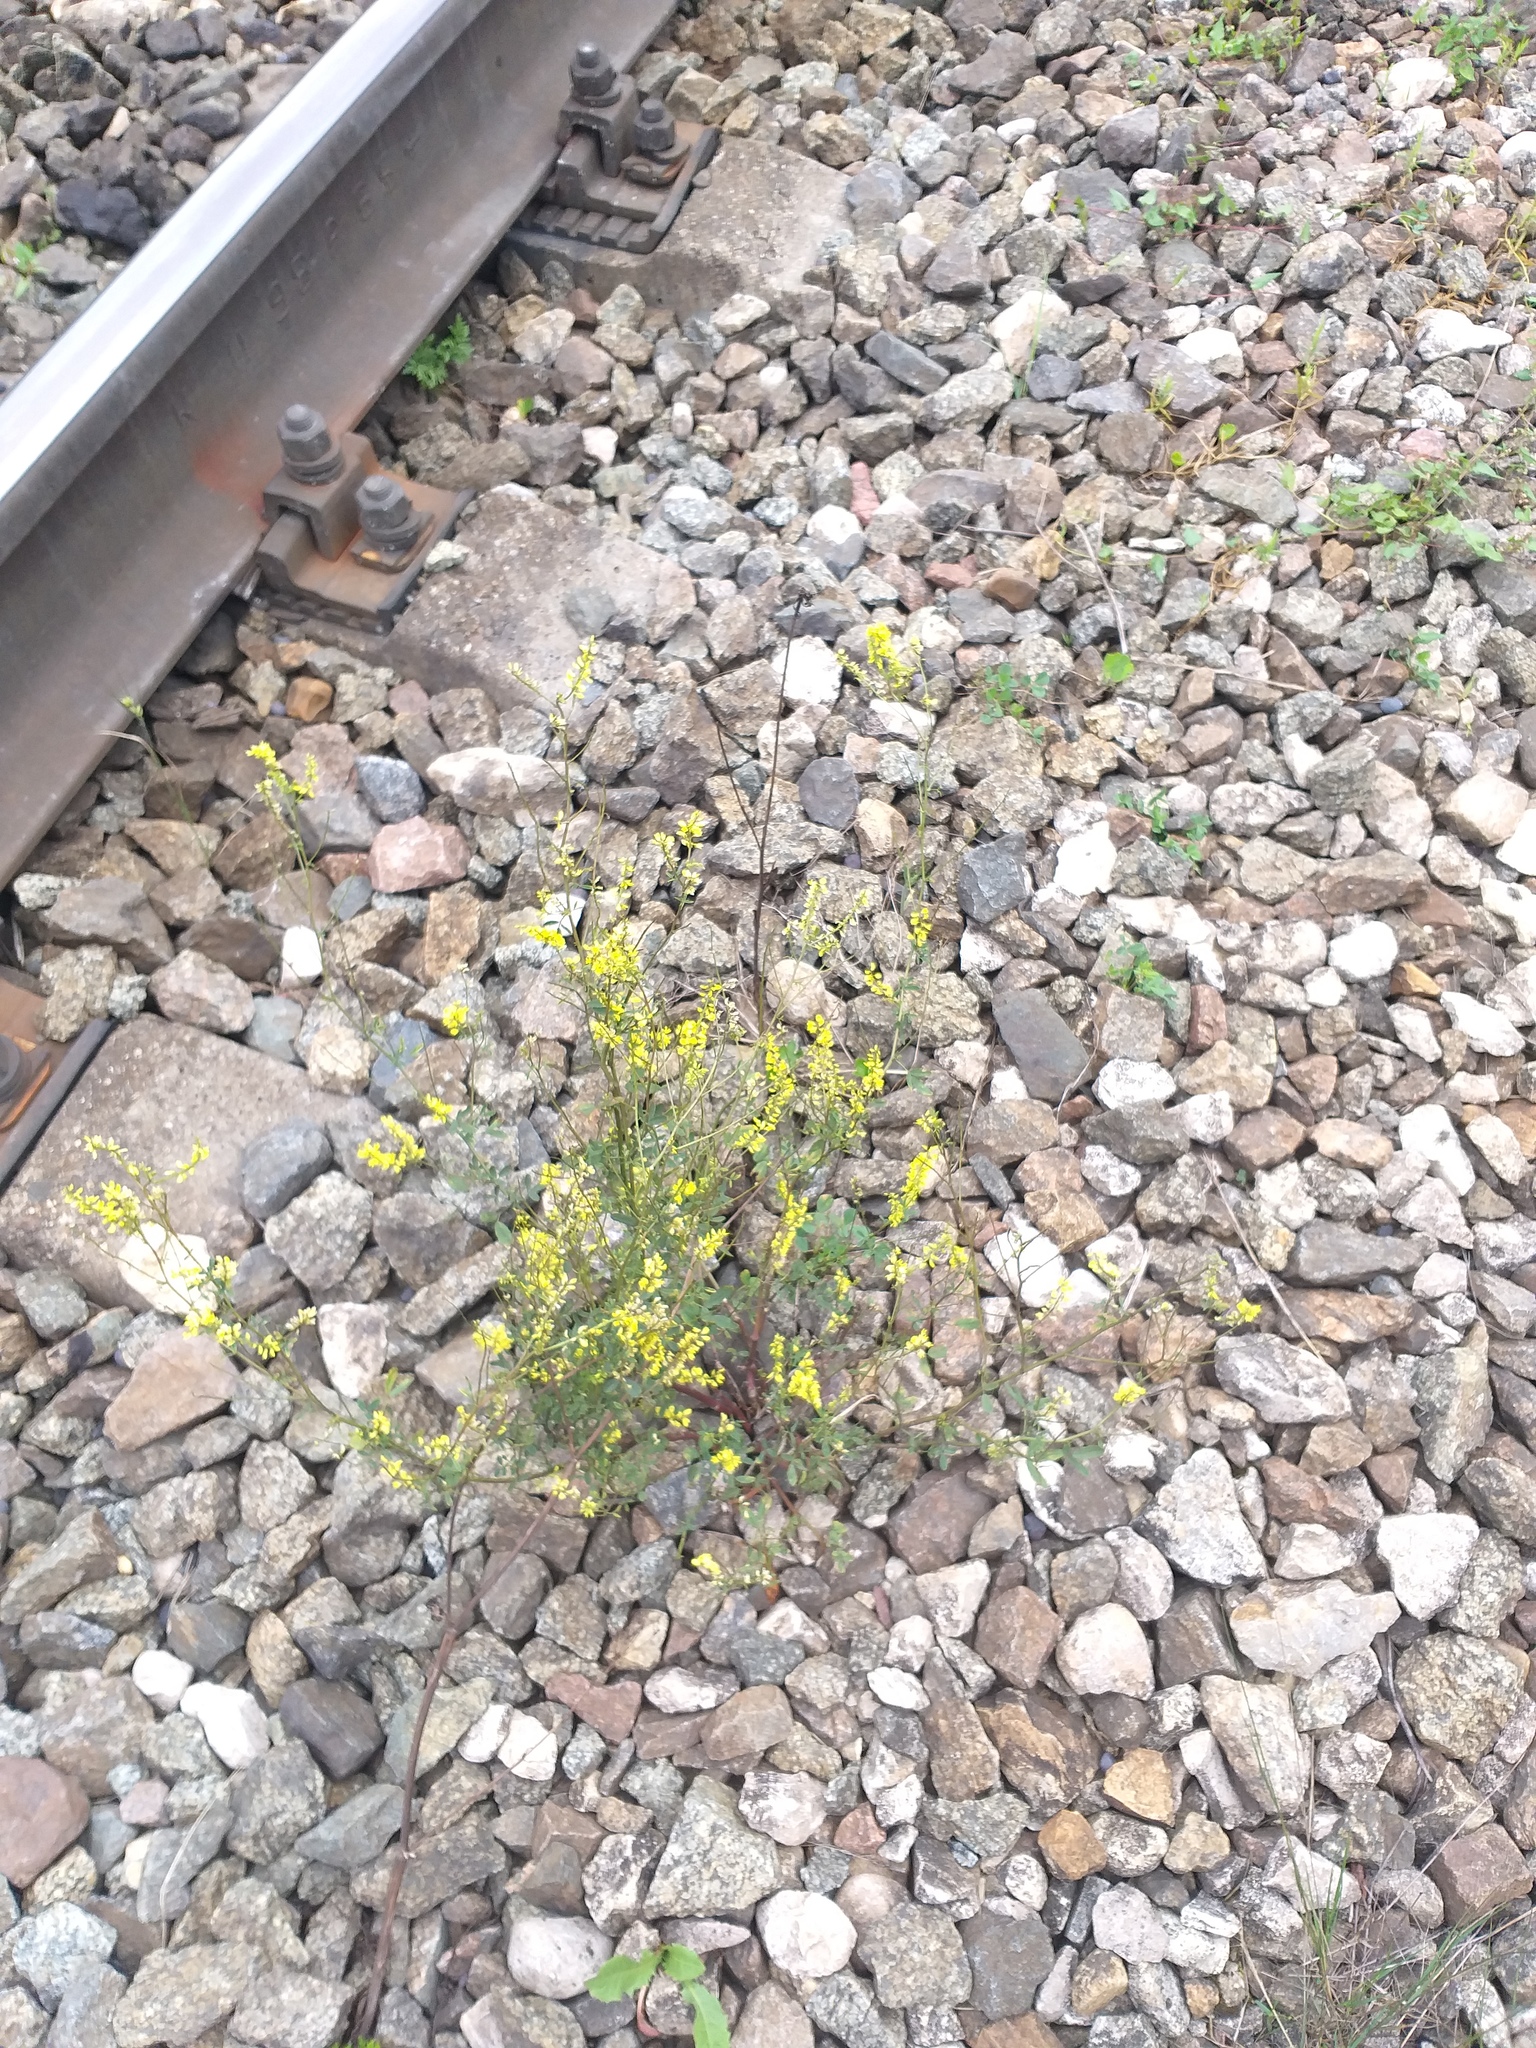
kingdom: Plantae
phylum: Tracheophyta
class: Magnoliopsida
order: Fabales
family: Fabaceae
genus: Melilotus
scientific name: Melilotus officinalis
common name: Sweetclover
